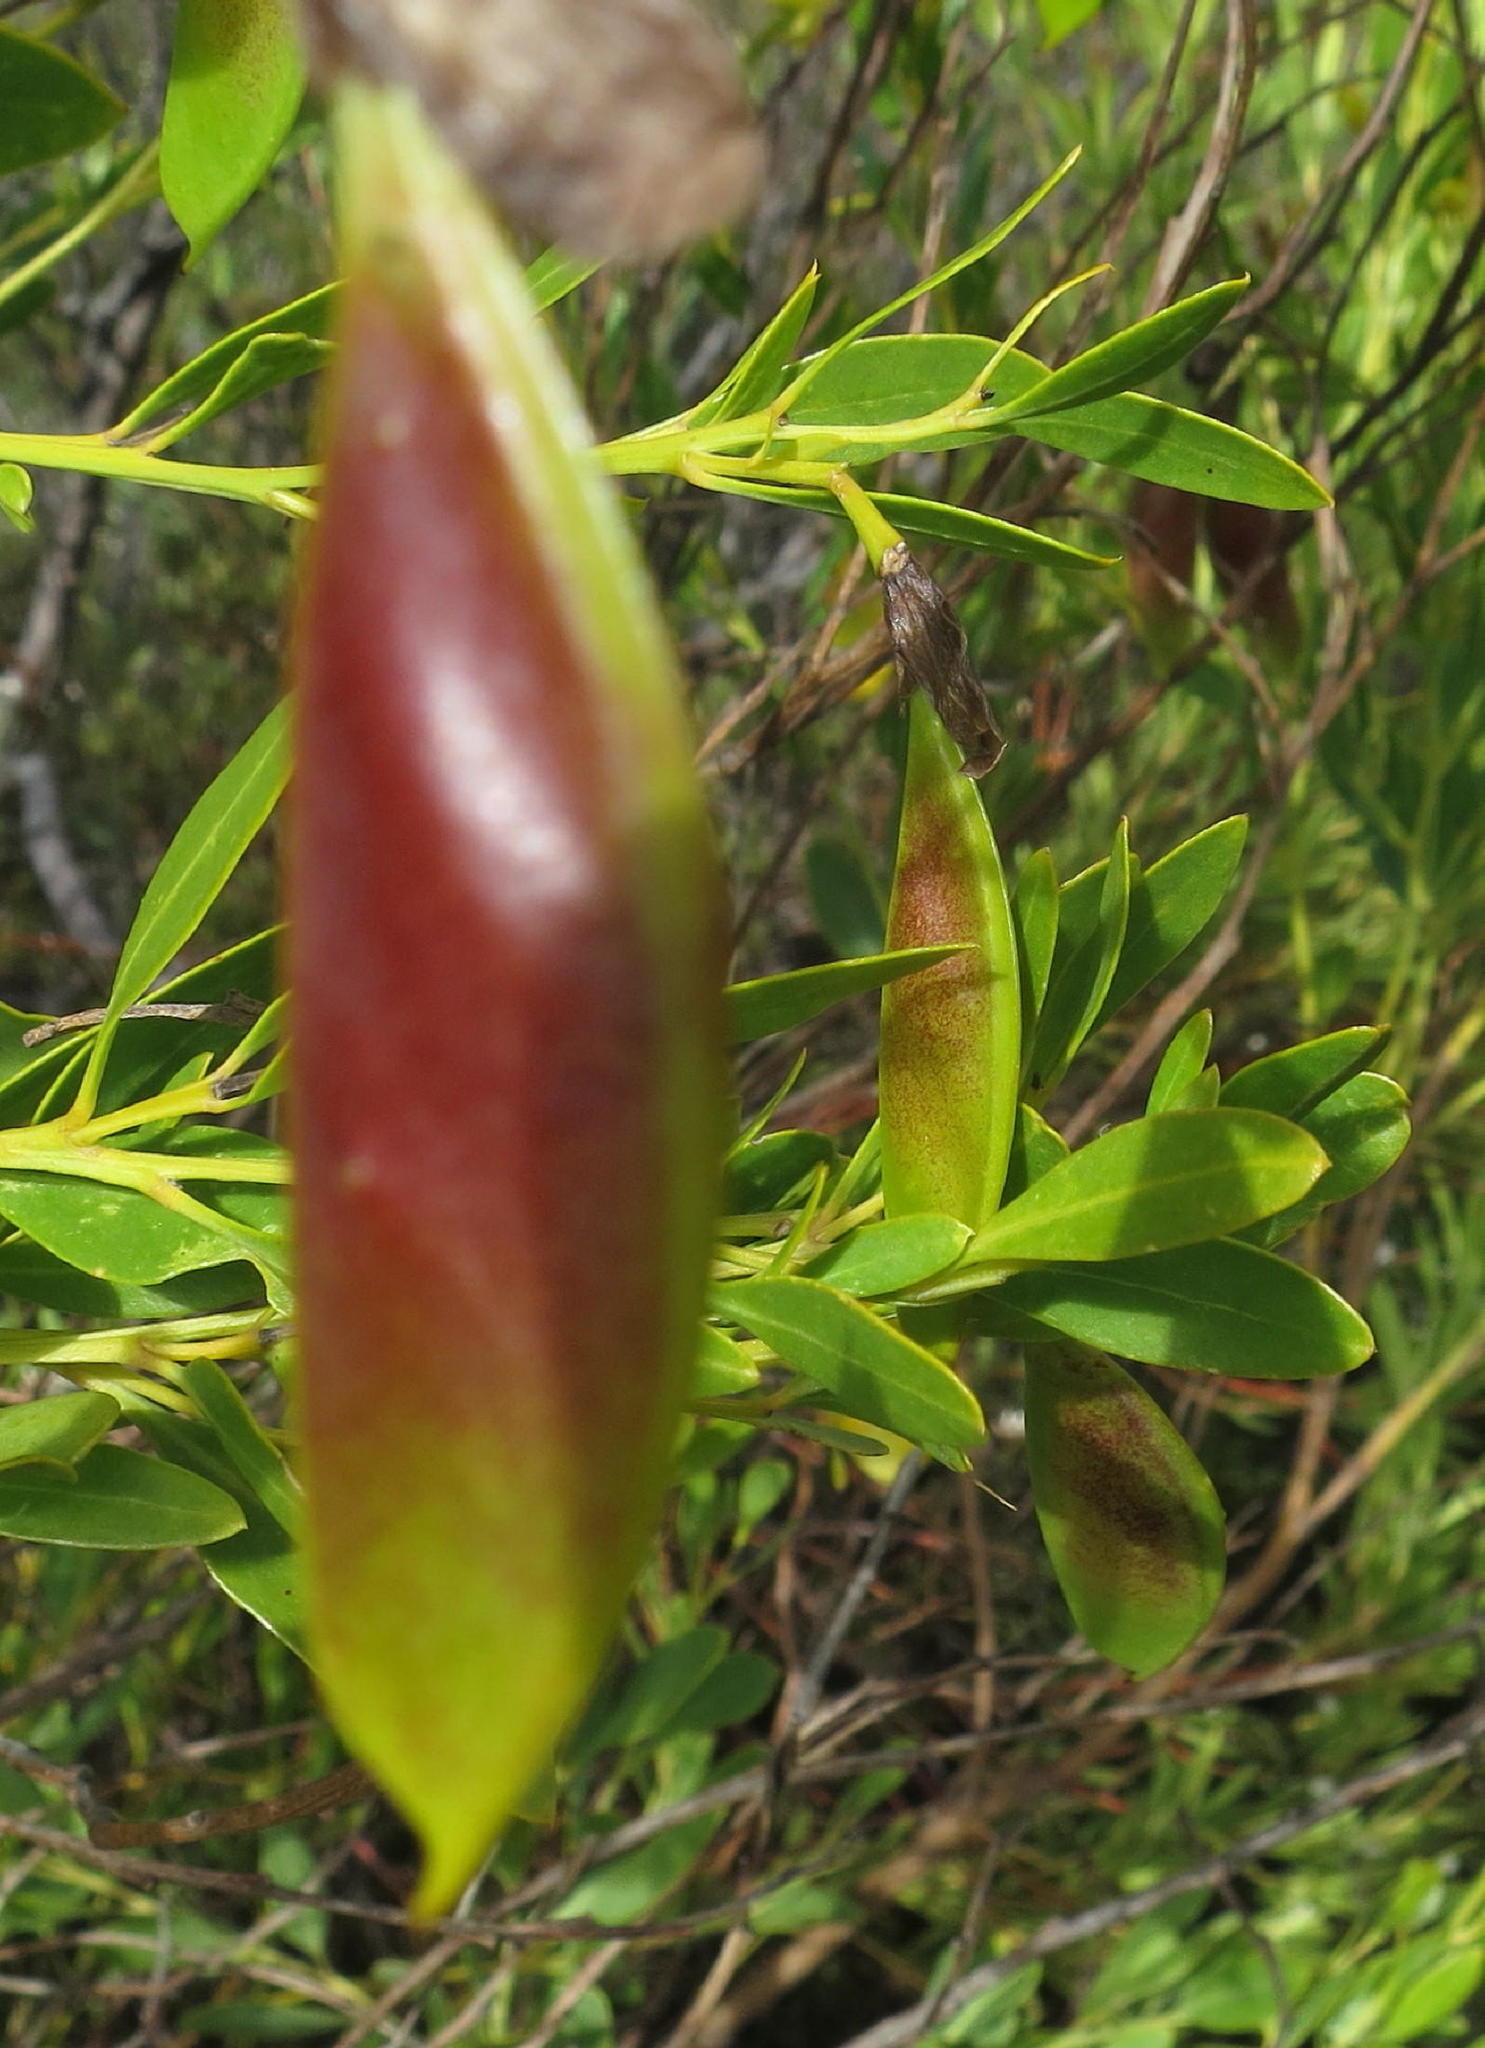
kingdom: Plantae
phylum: Tracheophyta
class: Magnoliopsida
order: Fabales
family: Fabaceae
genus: Rafnia
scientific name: Rafnia vlokii
